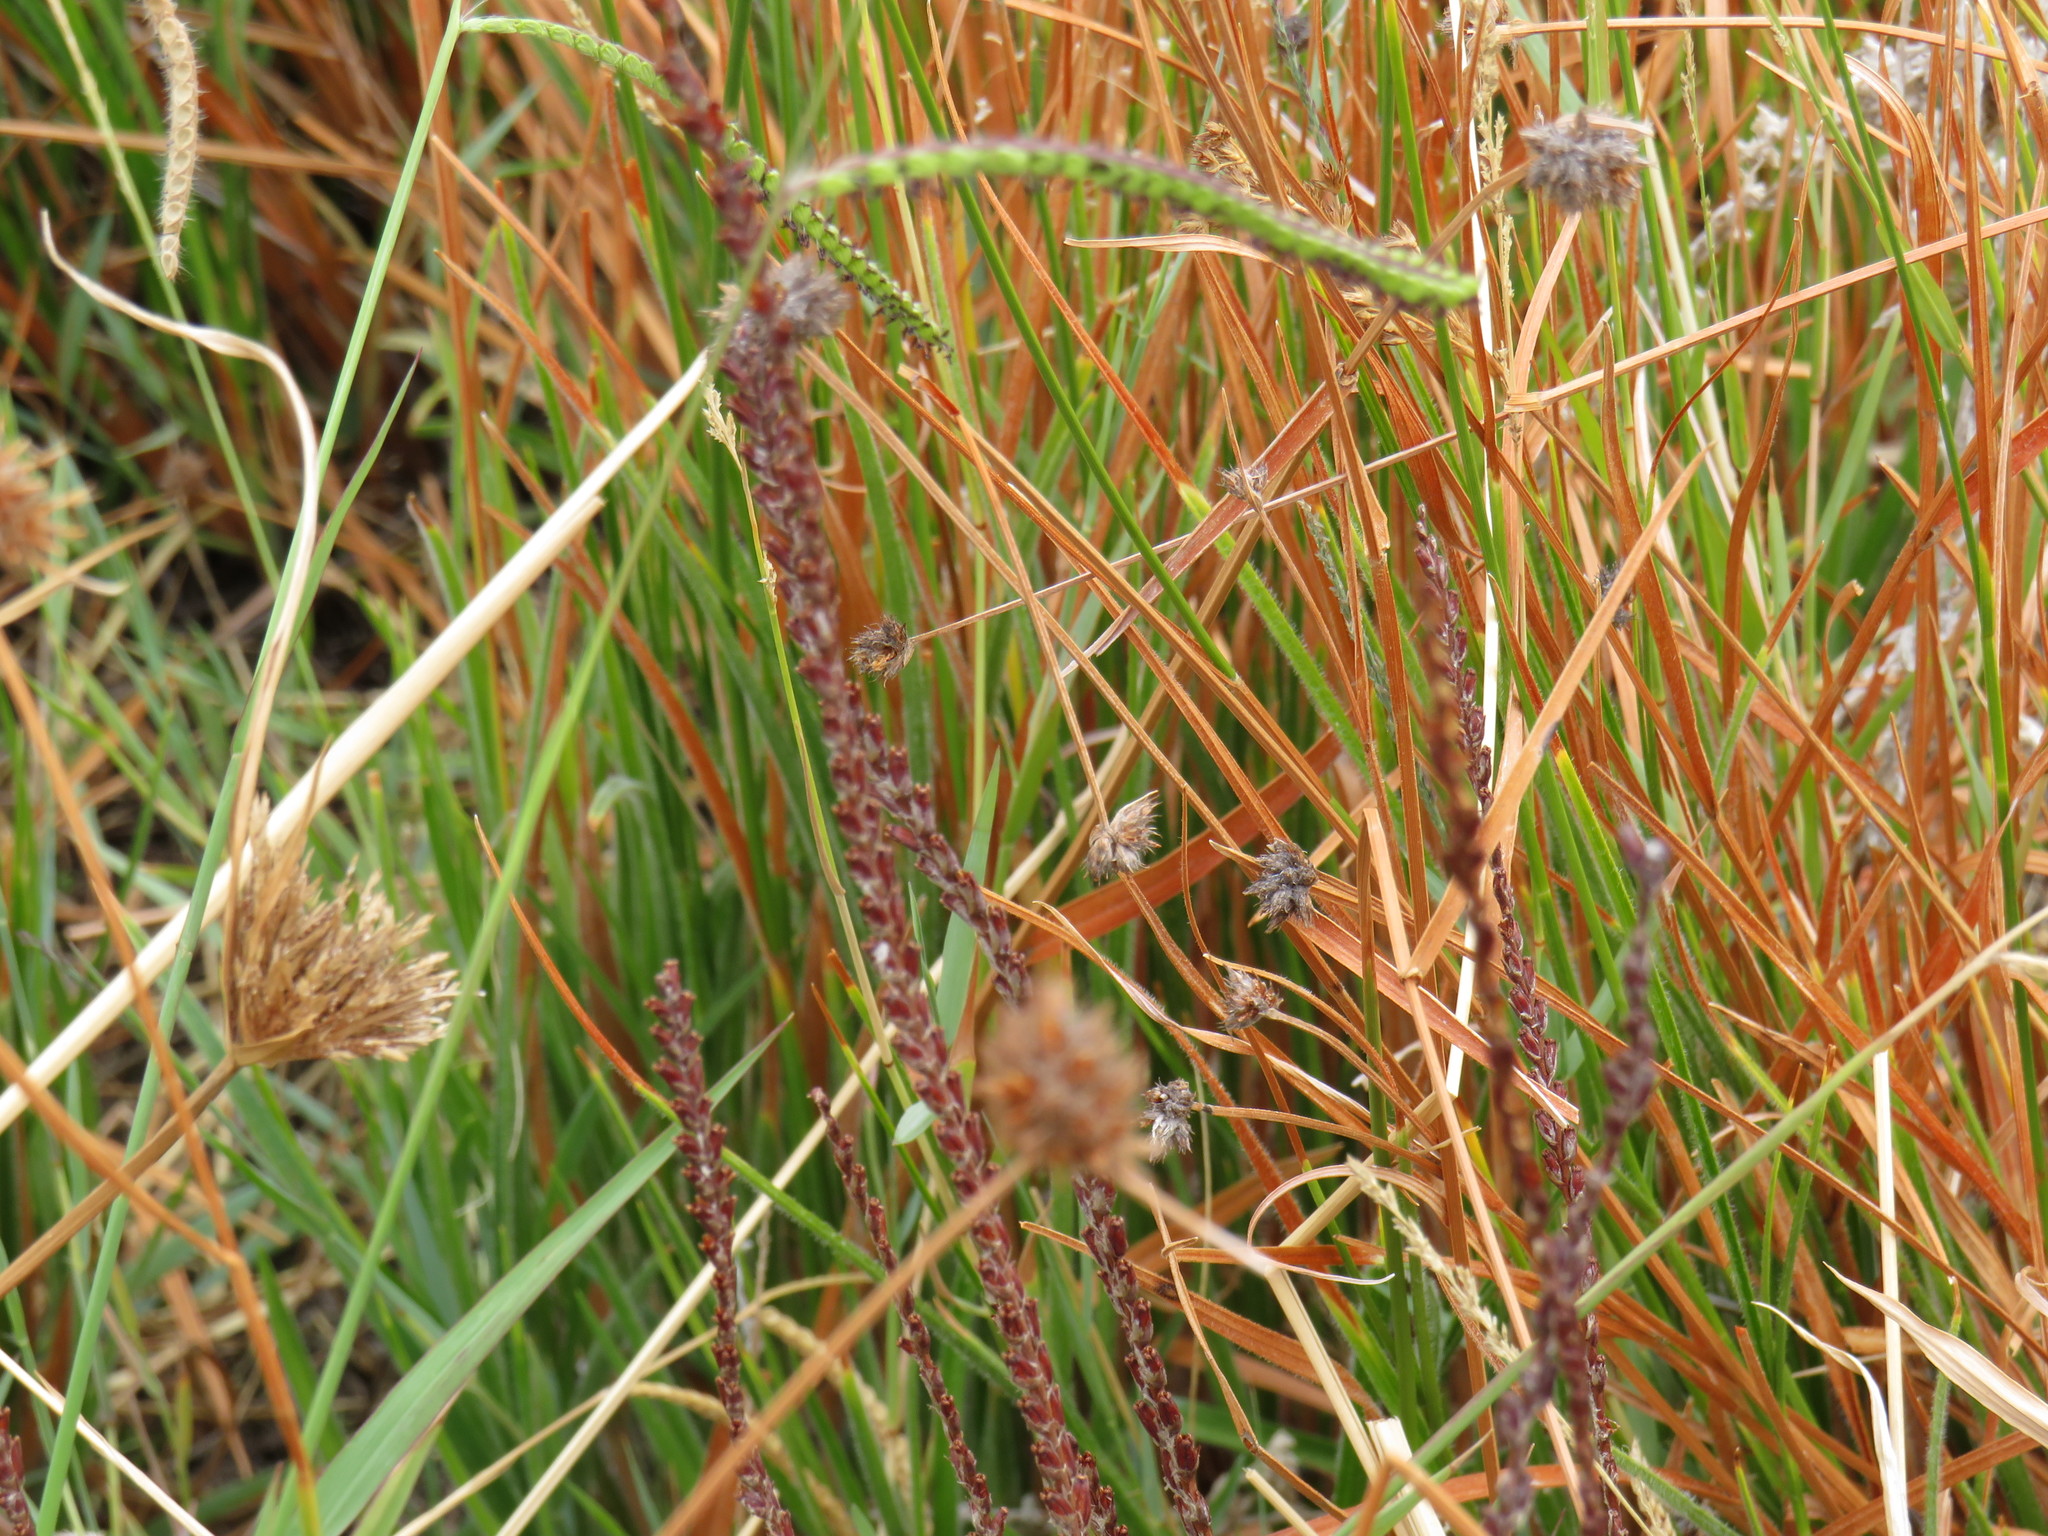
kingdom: Plantae
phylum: Tracheophyta
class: Liliopsida
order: Asparagales
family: Iridaceae
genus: Micranthus
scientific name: Micranthus plantagineus
